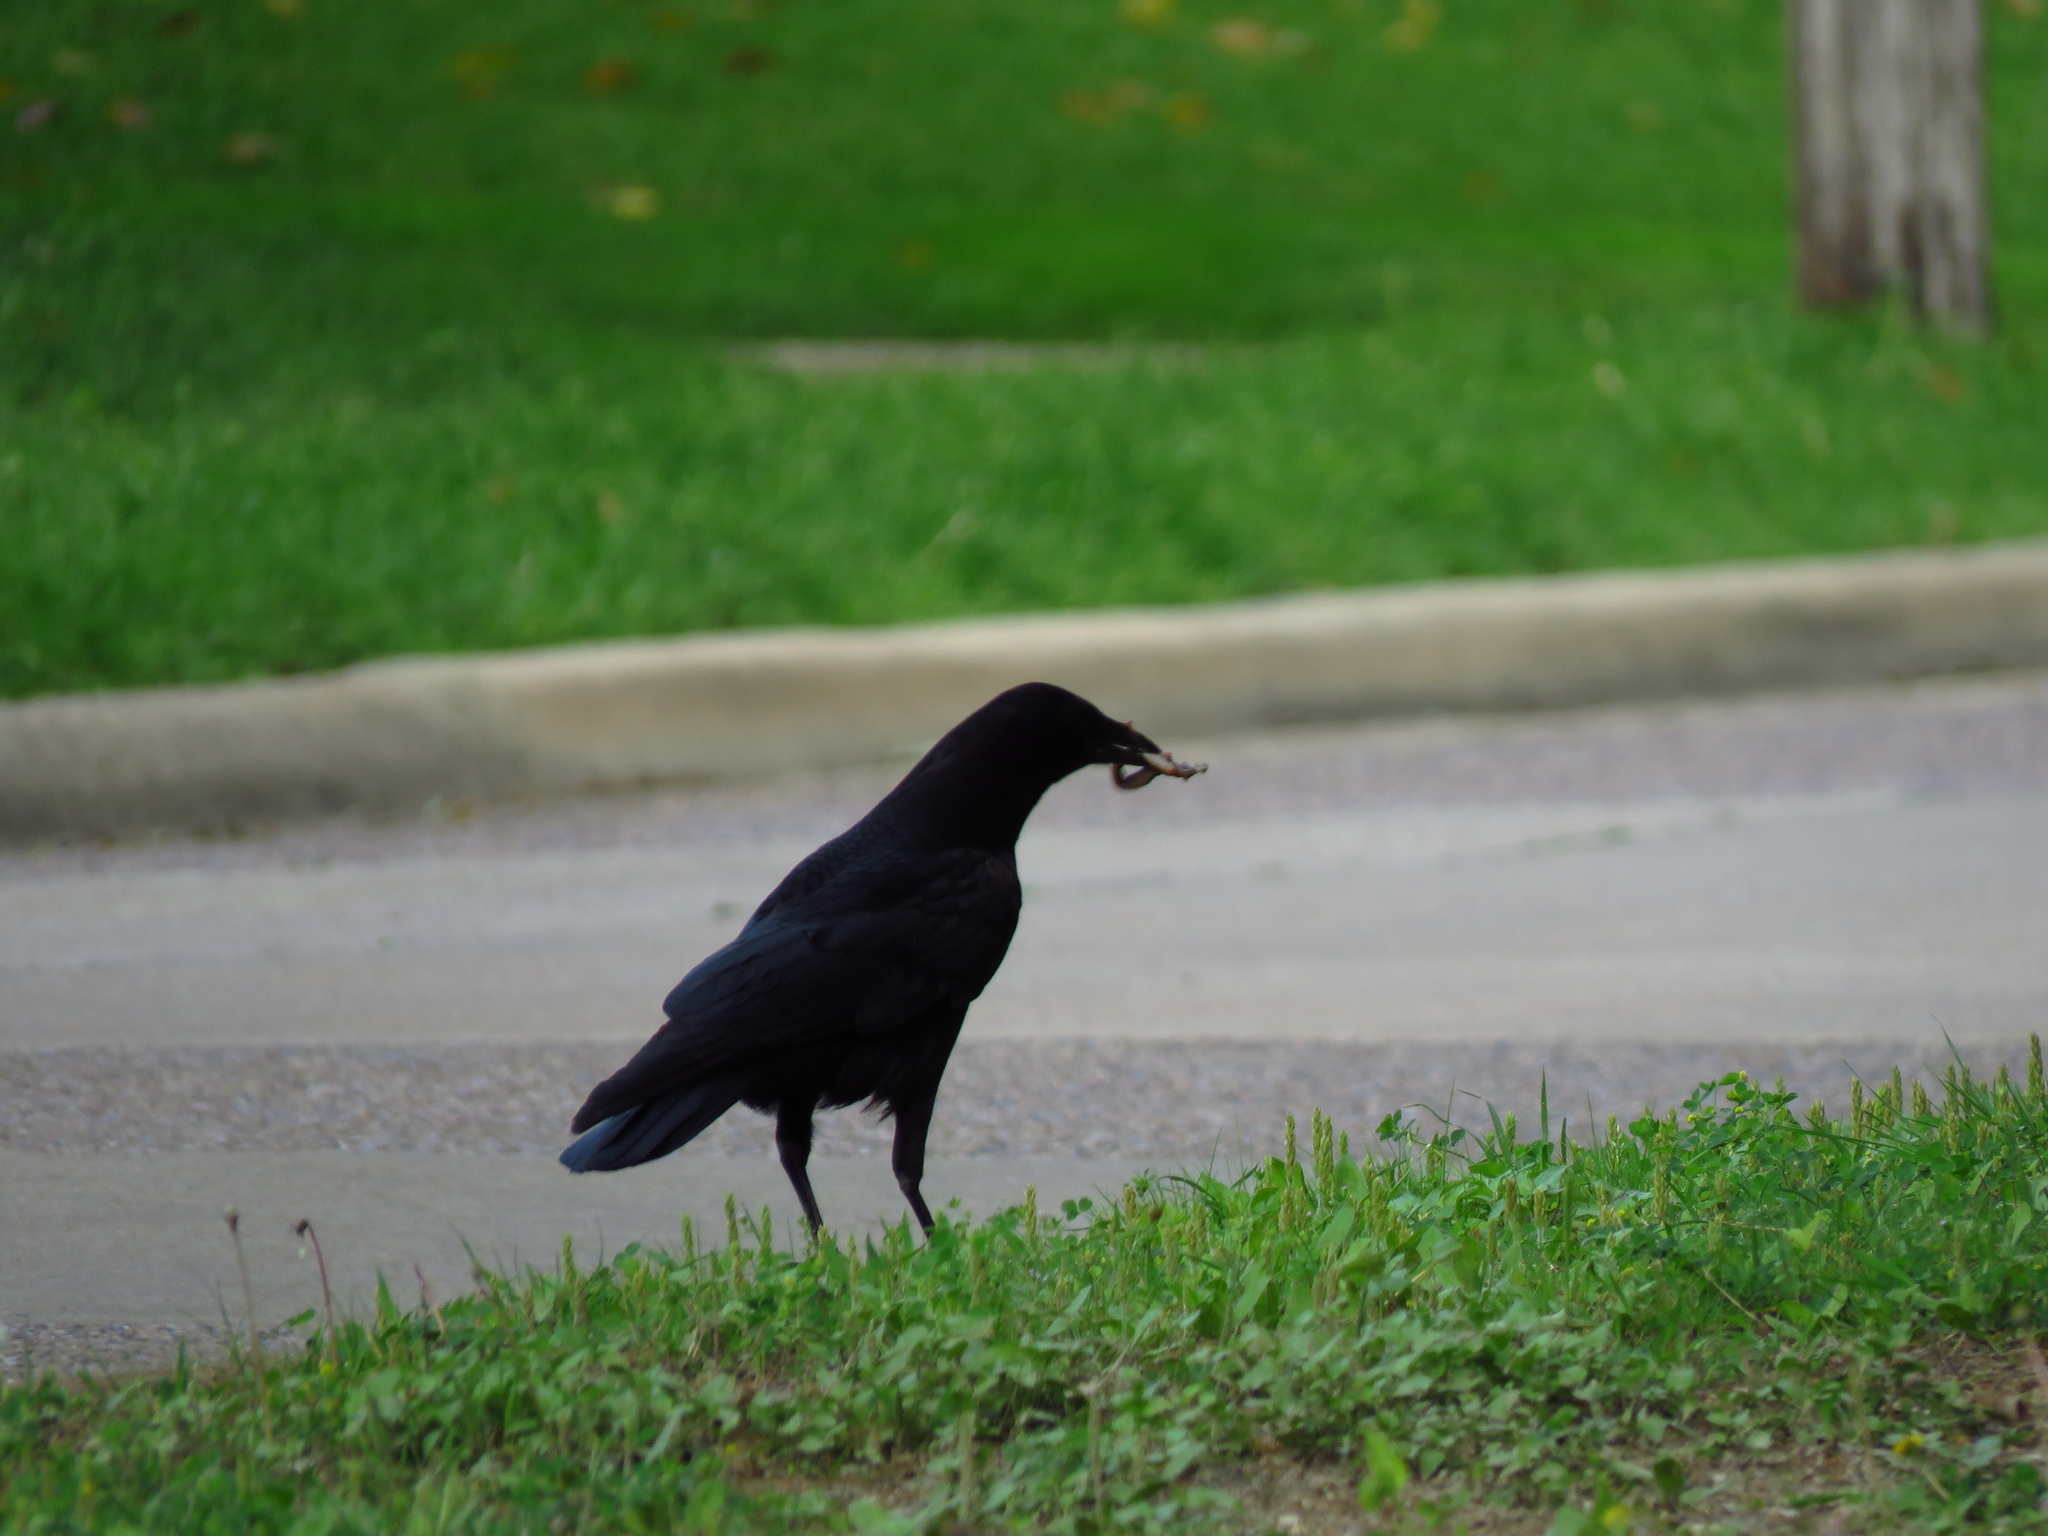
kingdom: Animalia
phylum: Chordata
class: Aves
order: Passeriformes
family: Corvidae
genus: Corvus
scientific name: Corvus brachyrhynchos
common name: American crow
